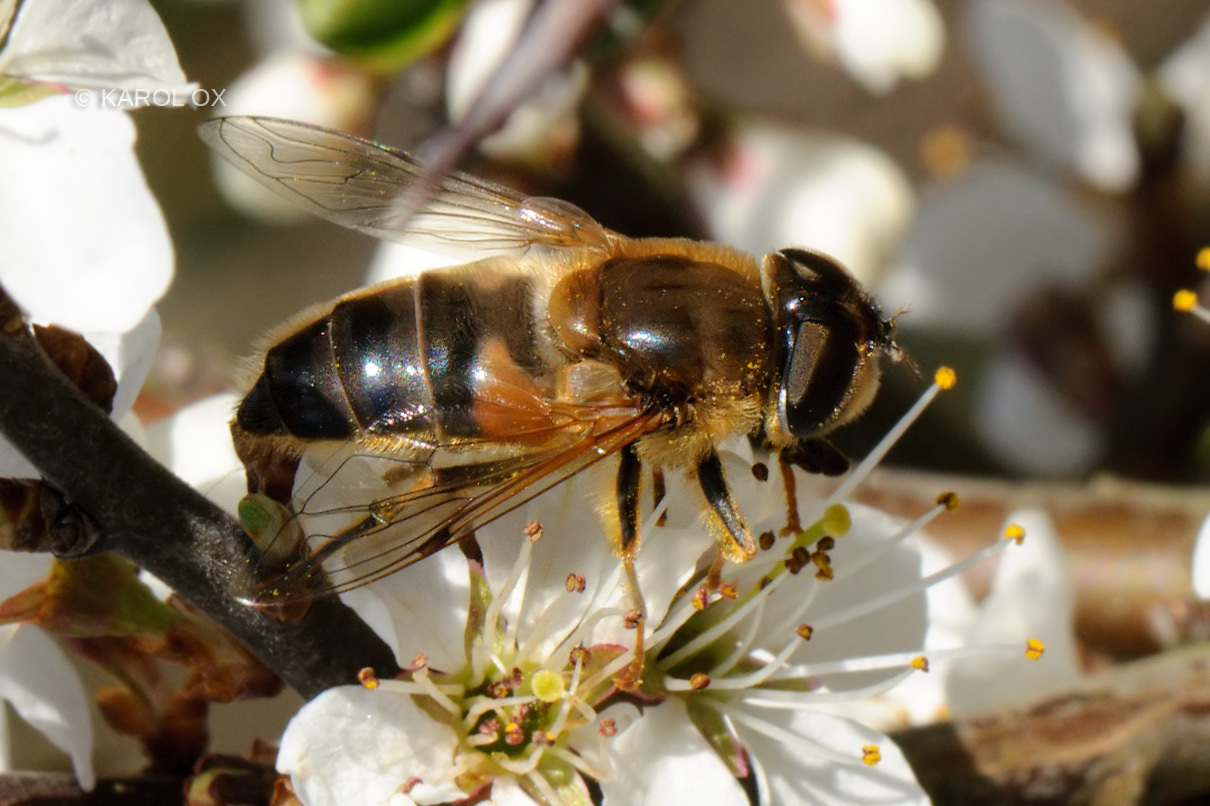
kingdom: Animalia
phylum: Arthropoda
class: Insecta
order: Diptera
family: Syrphidae
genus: Eristalis
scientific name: Eristalis pertinax
